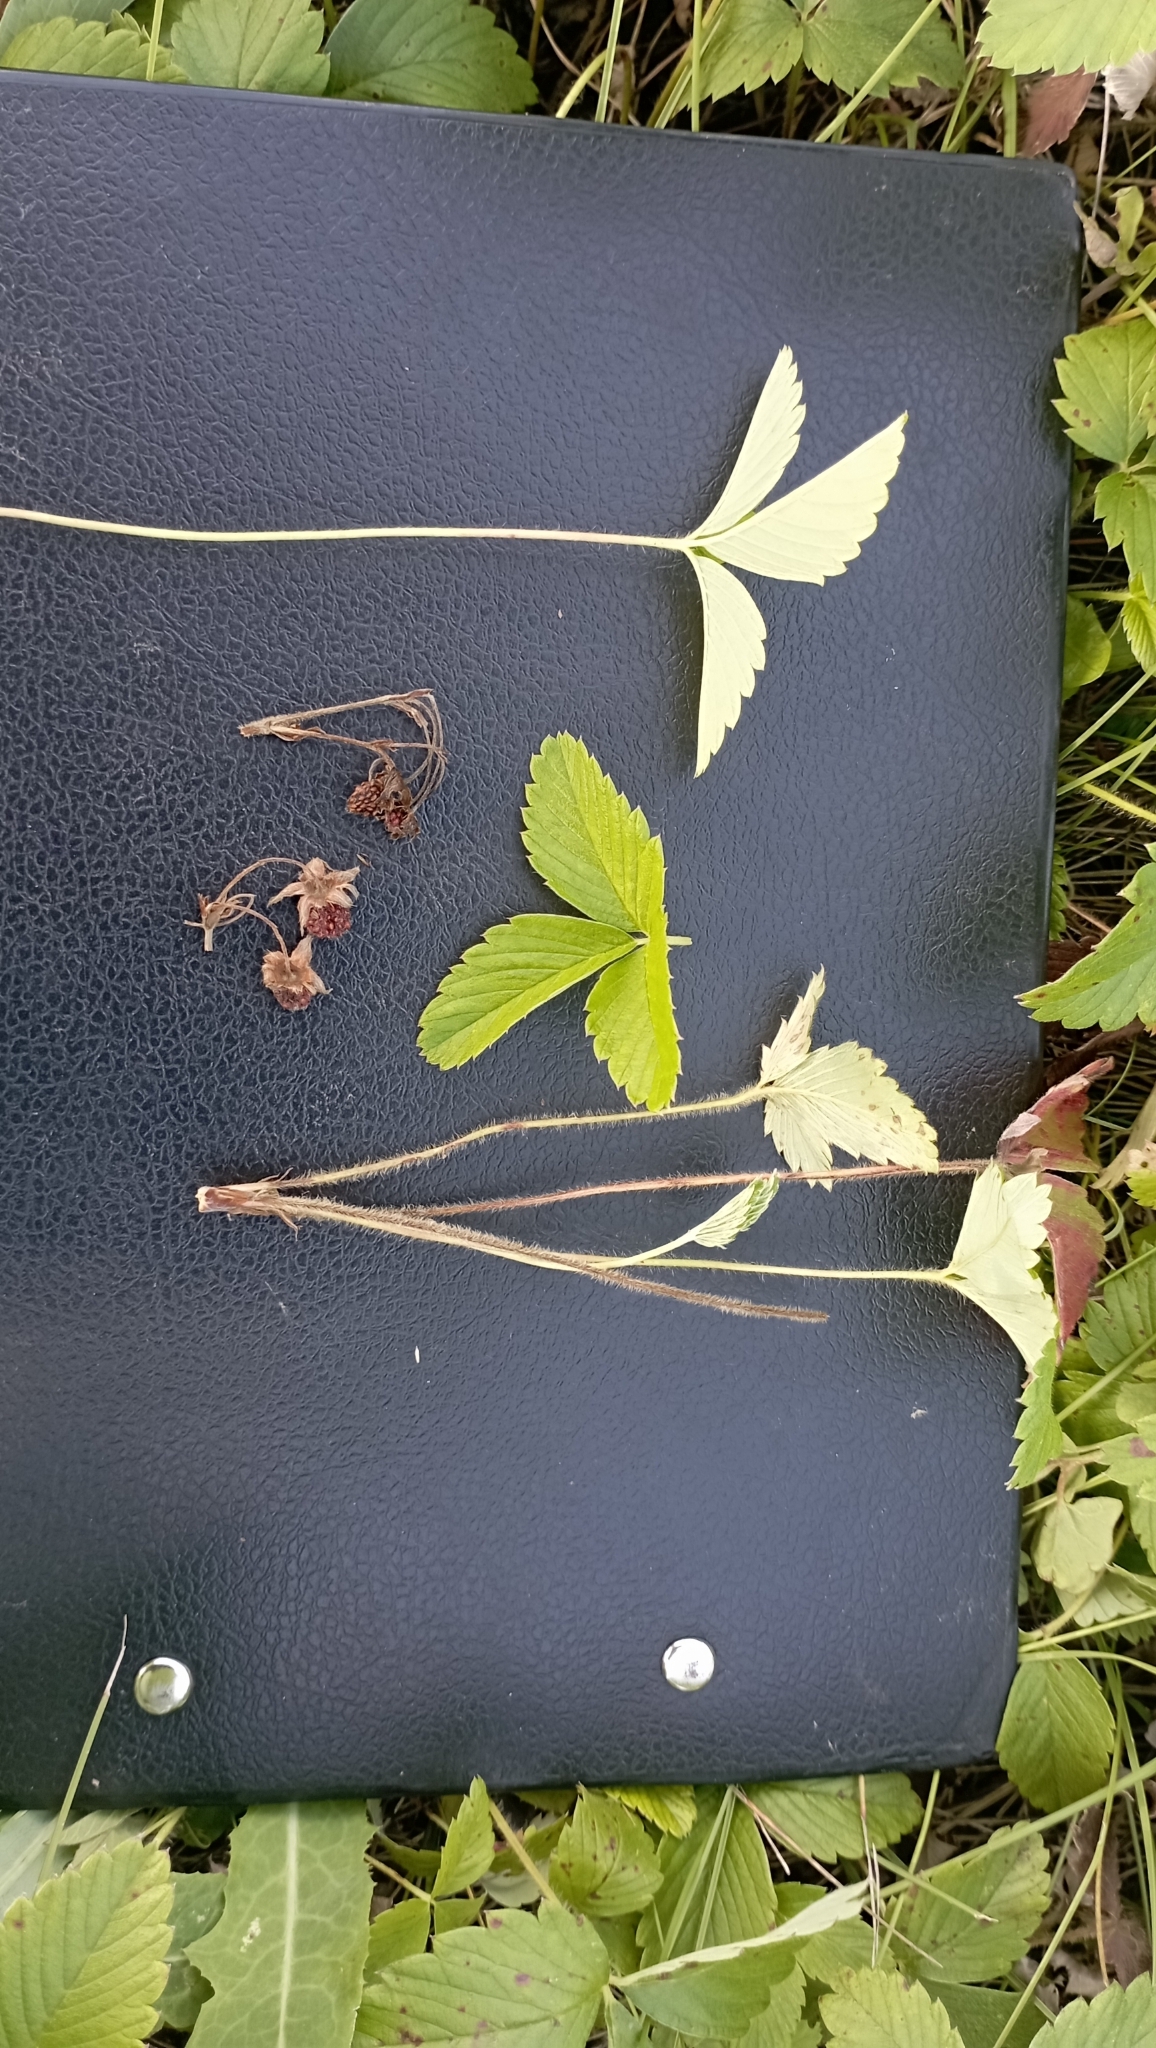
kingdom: Plantae
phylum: Tracheophyta
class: Magnoliopsida
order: Rosales
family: Rosaceae
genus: Fragaria
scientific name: Fragaria viridis
